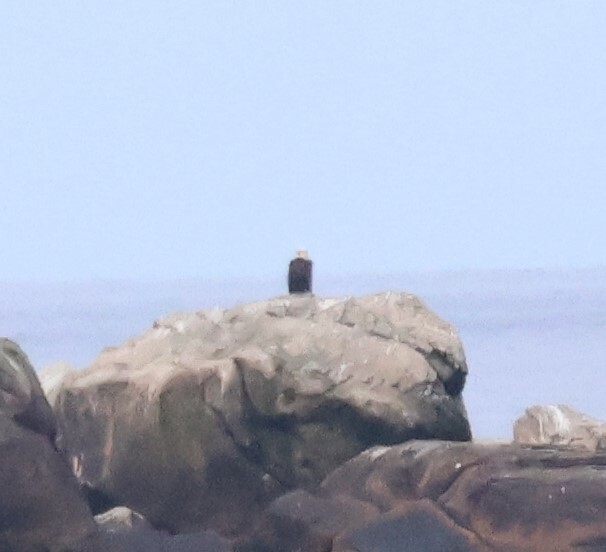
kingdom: Animalia
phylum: Chordata
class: Aves
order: Accipitriformes
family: Accipitridae
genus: Haliaeetus
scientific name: Haliaeetus leucocephalus
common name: Bald eagle
